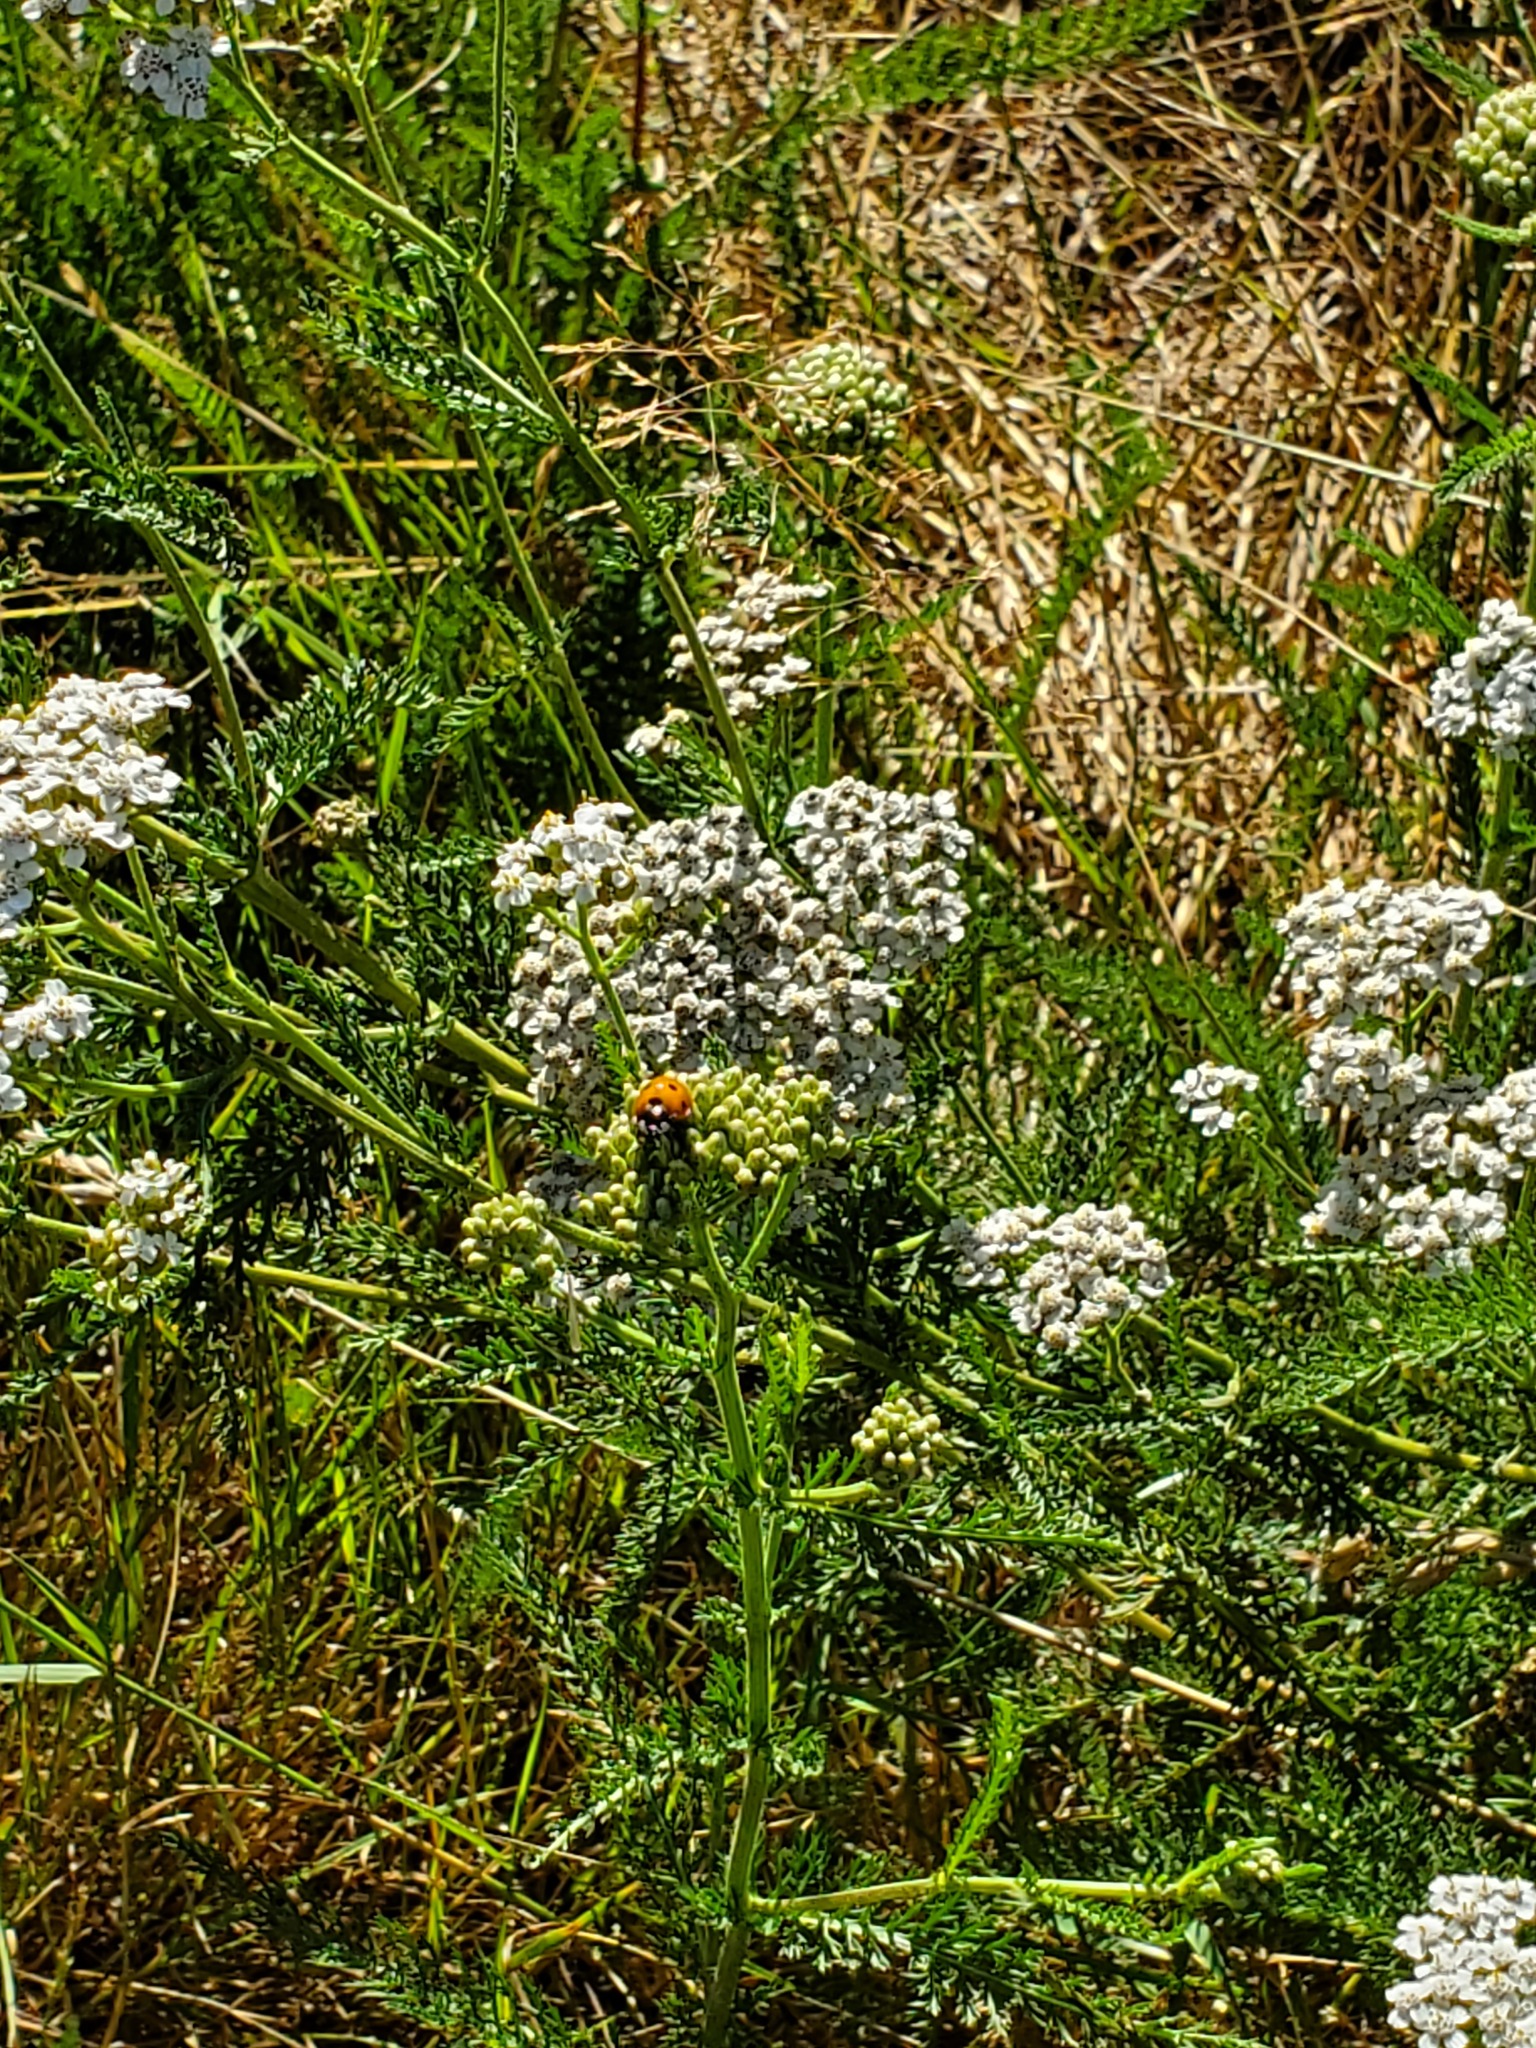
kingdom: Animalia
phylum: Arthropoda
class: Insecta
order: Coleoptera
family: Coccinellidae
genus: Coccinella
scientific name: Coccinella septempunctata
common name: Sevenspotted lady beetle
